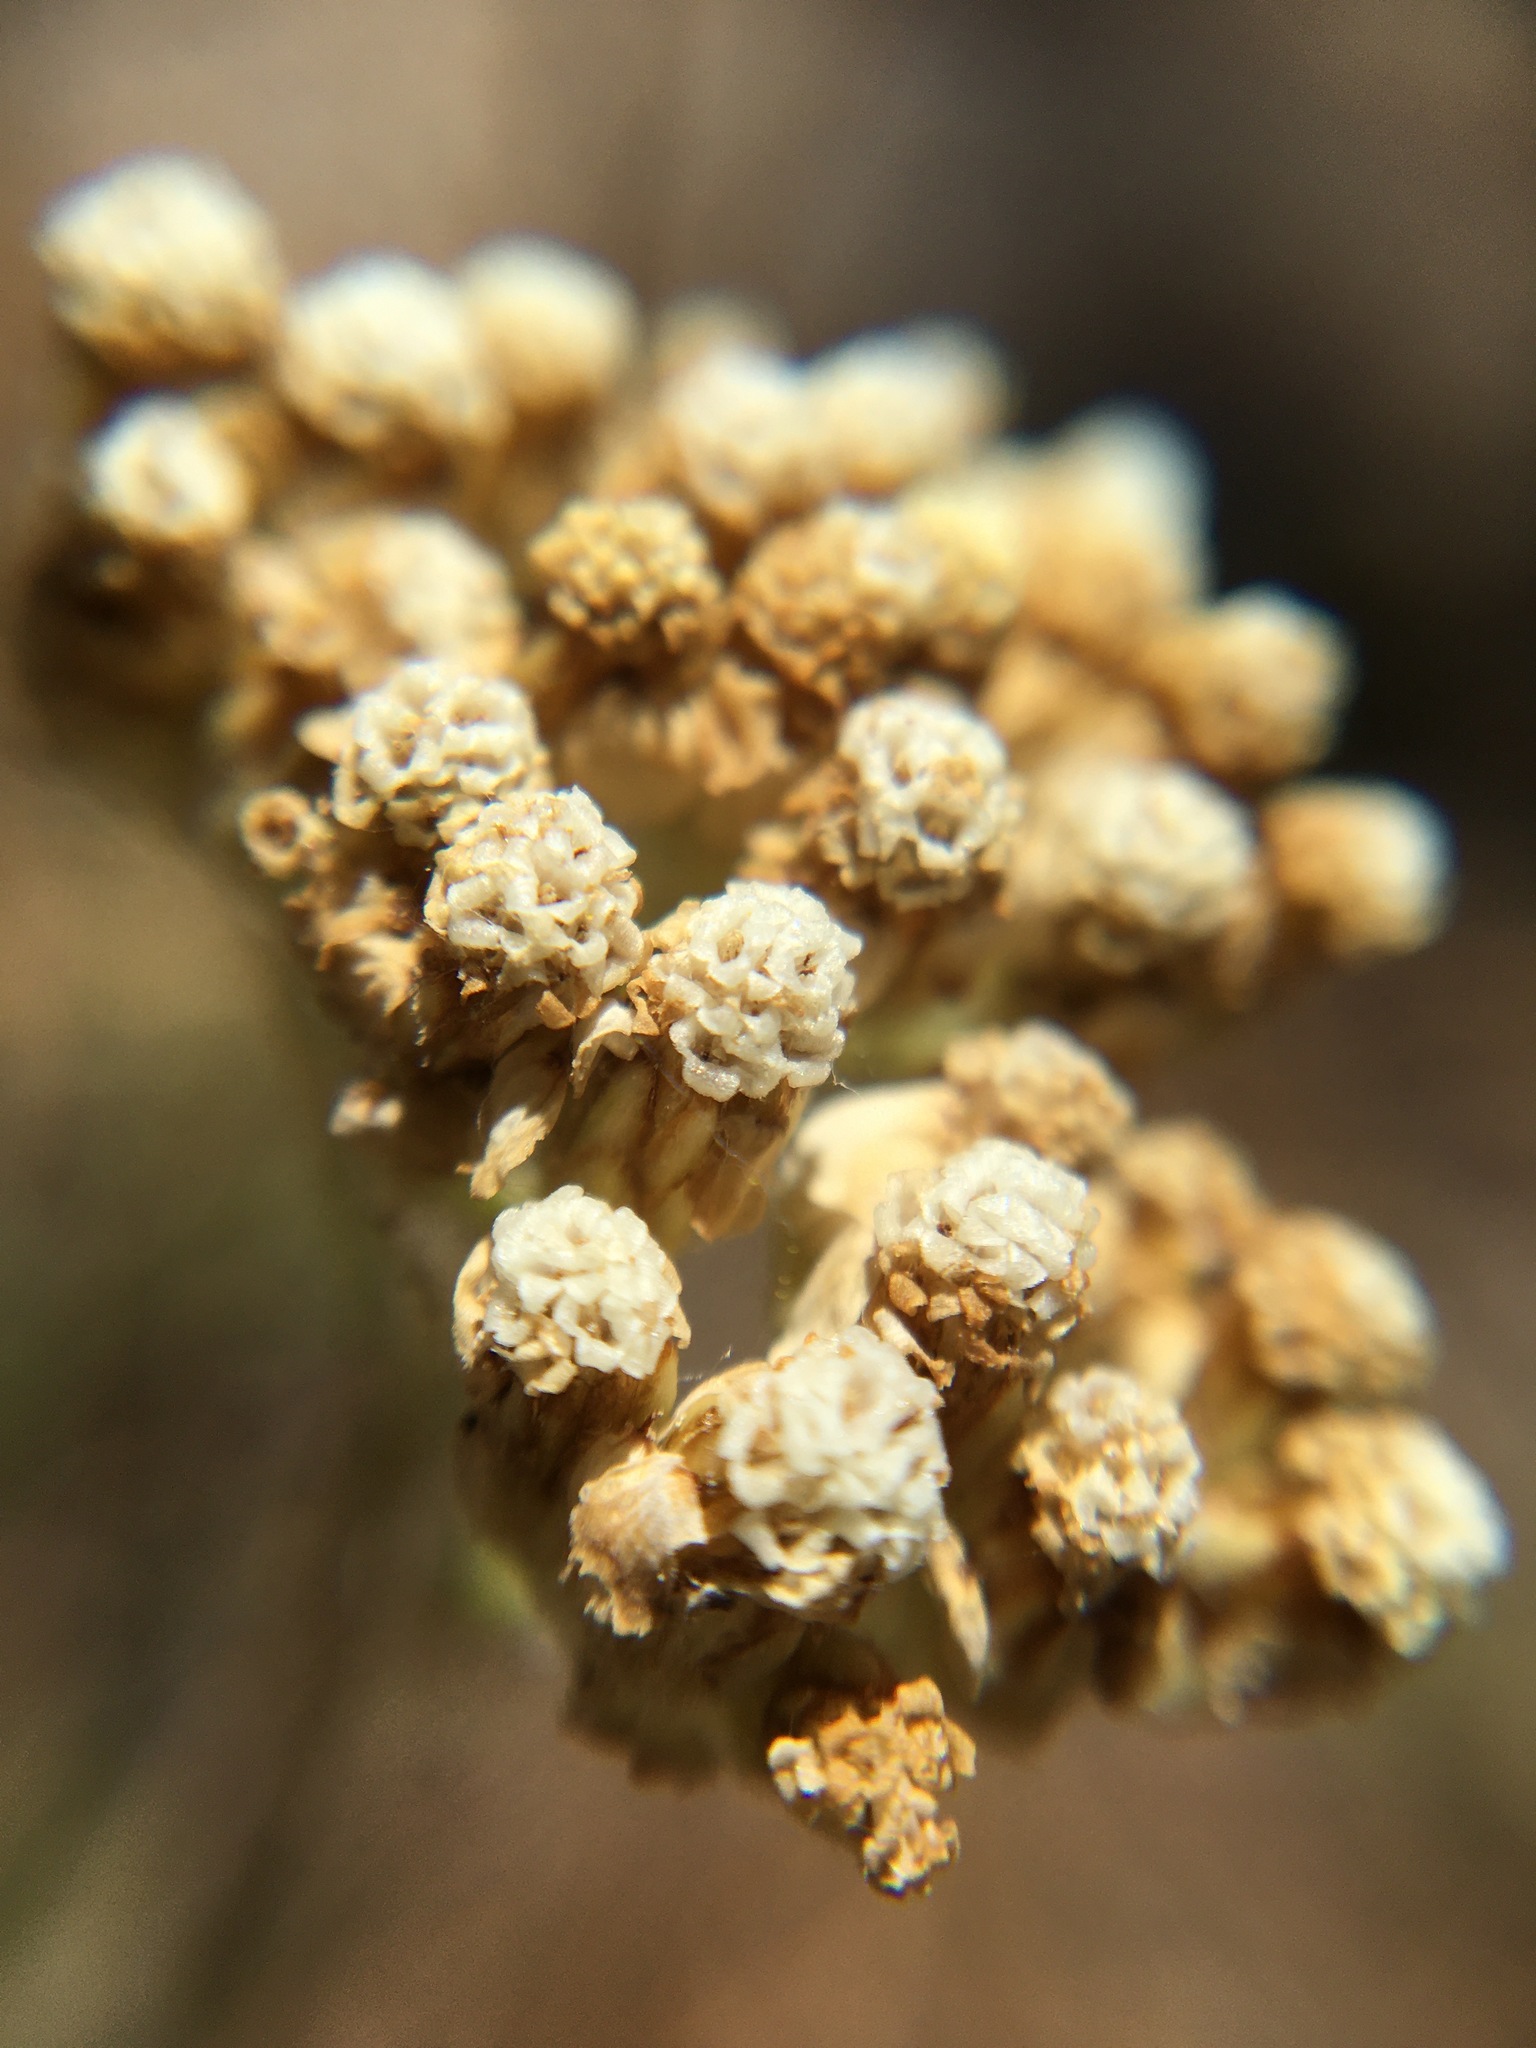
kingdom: Plantae
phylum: Tracheophyta
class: Magnoliopsida
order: Asterales
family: Asteraceae
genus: Achillea
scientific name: Achillea millefolium
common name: Yarrow
